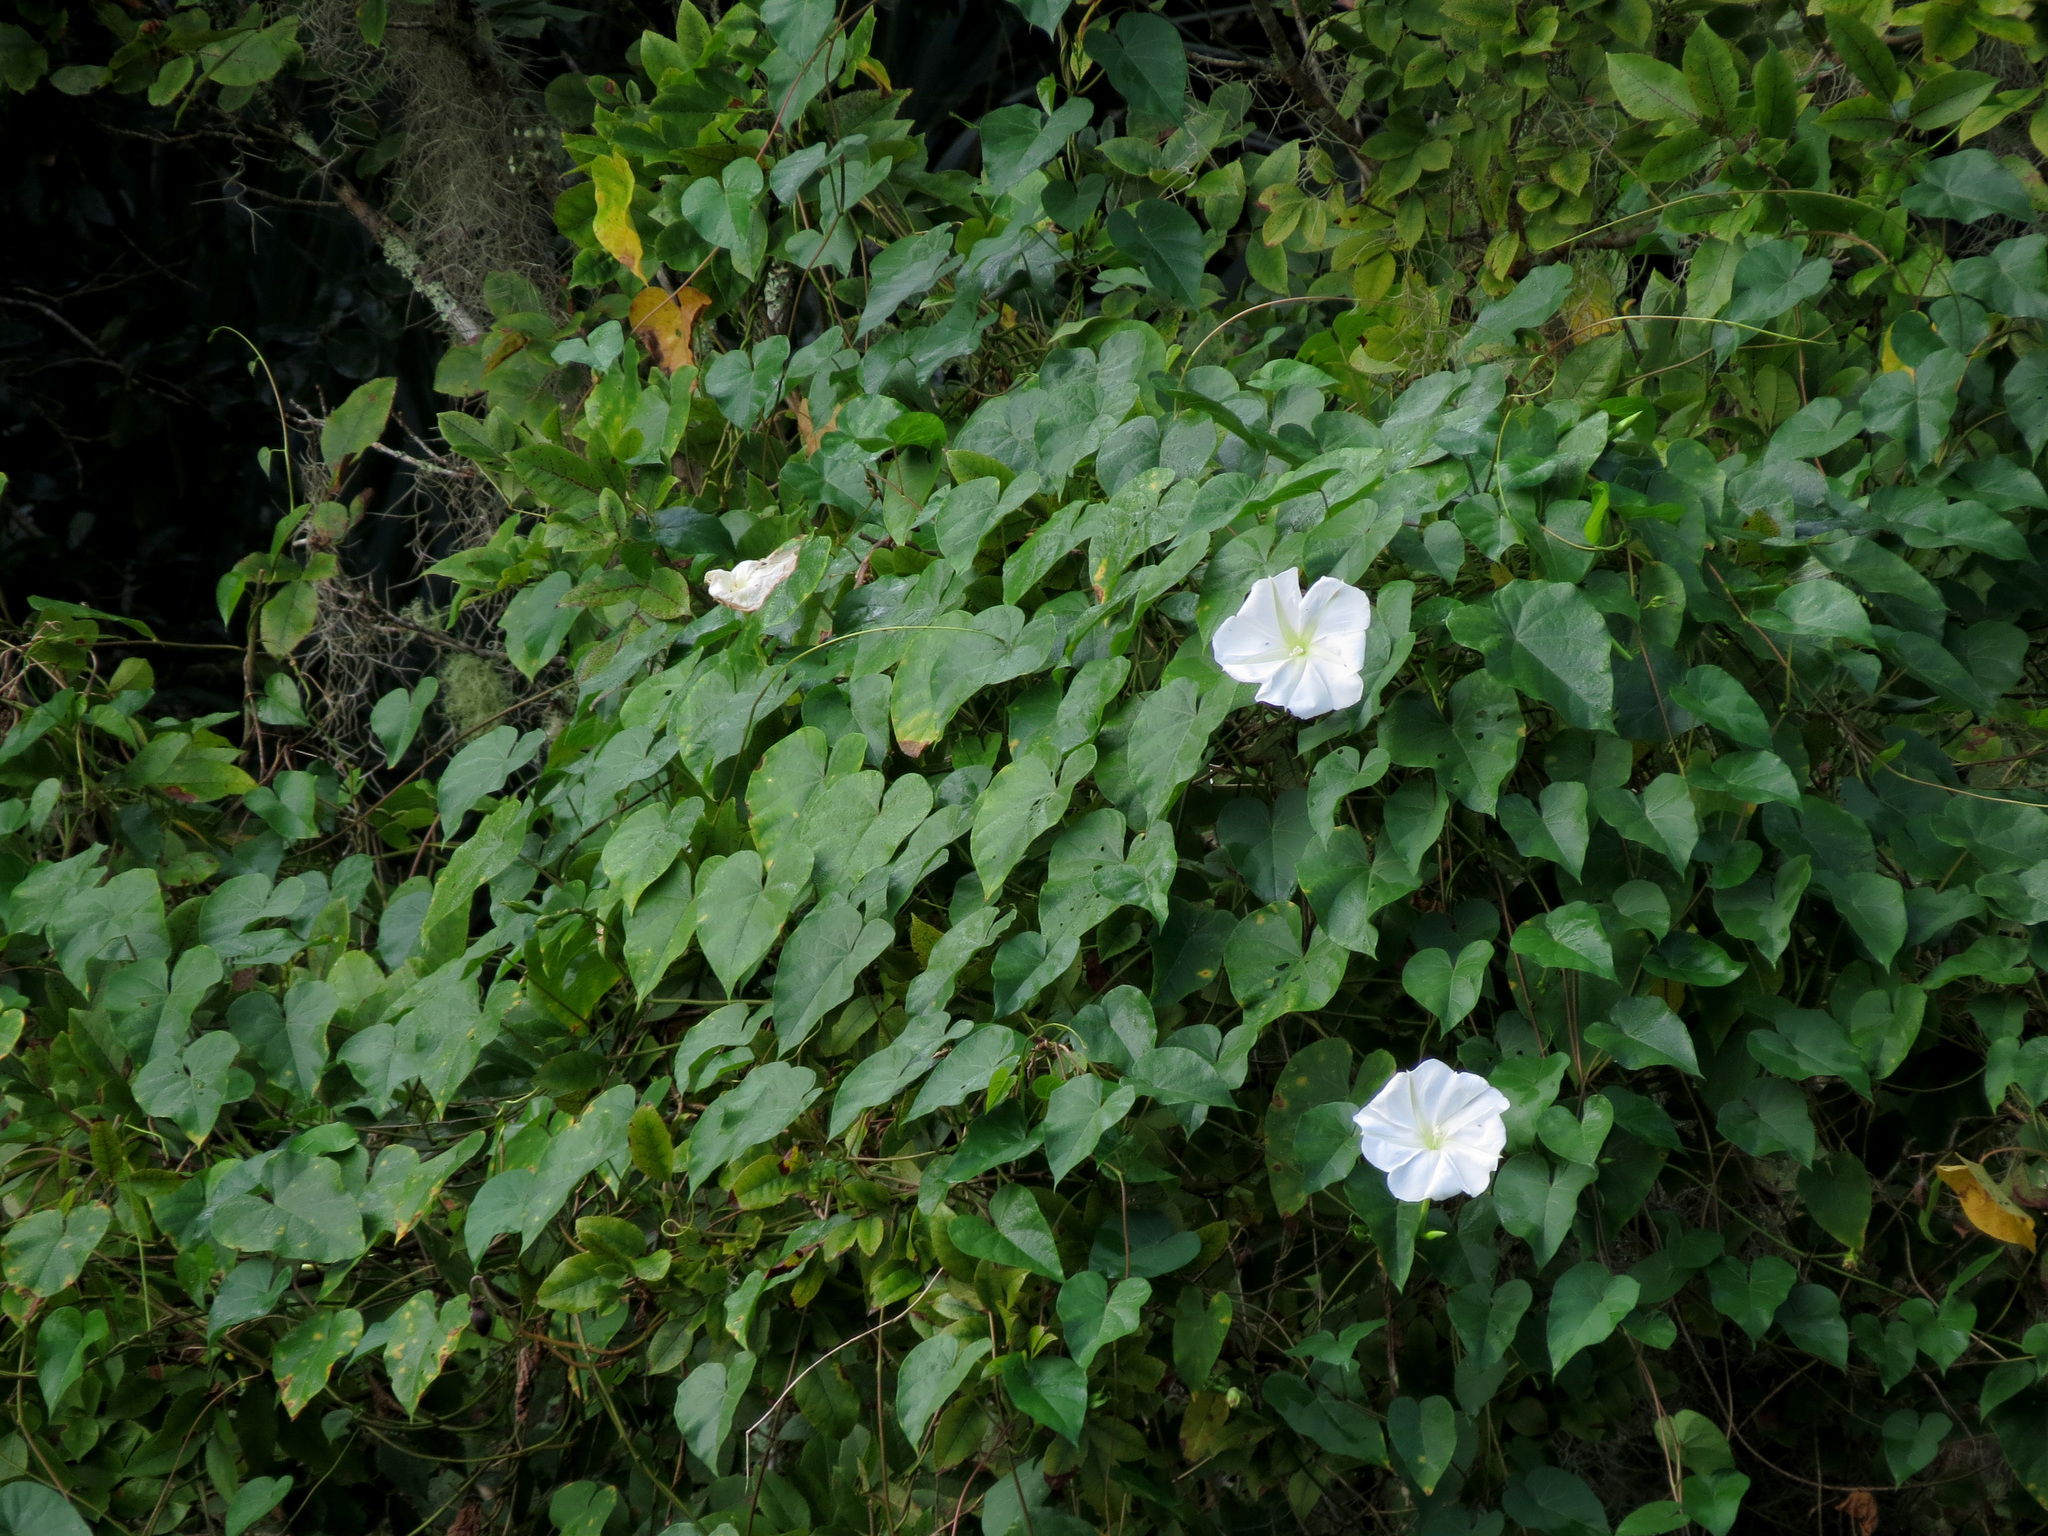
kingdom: Plantae
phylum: Tracheophyta
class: Magnoliopsida
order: Solanales
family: Convolvulaceae
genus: Ipomoea
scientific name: Ipomoea alba
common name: Moonflower
